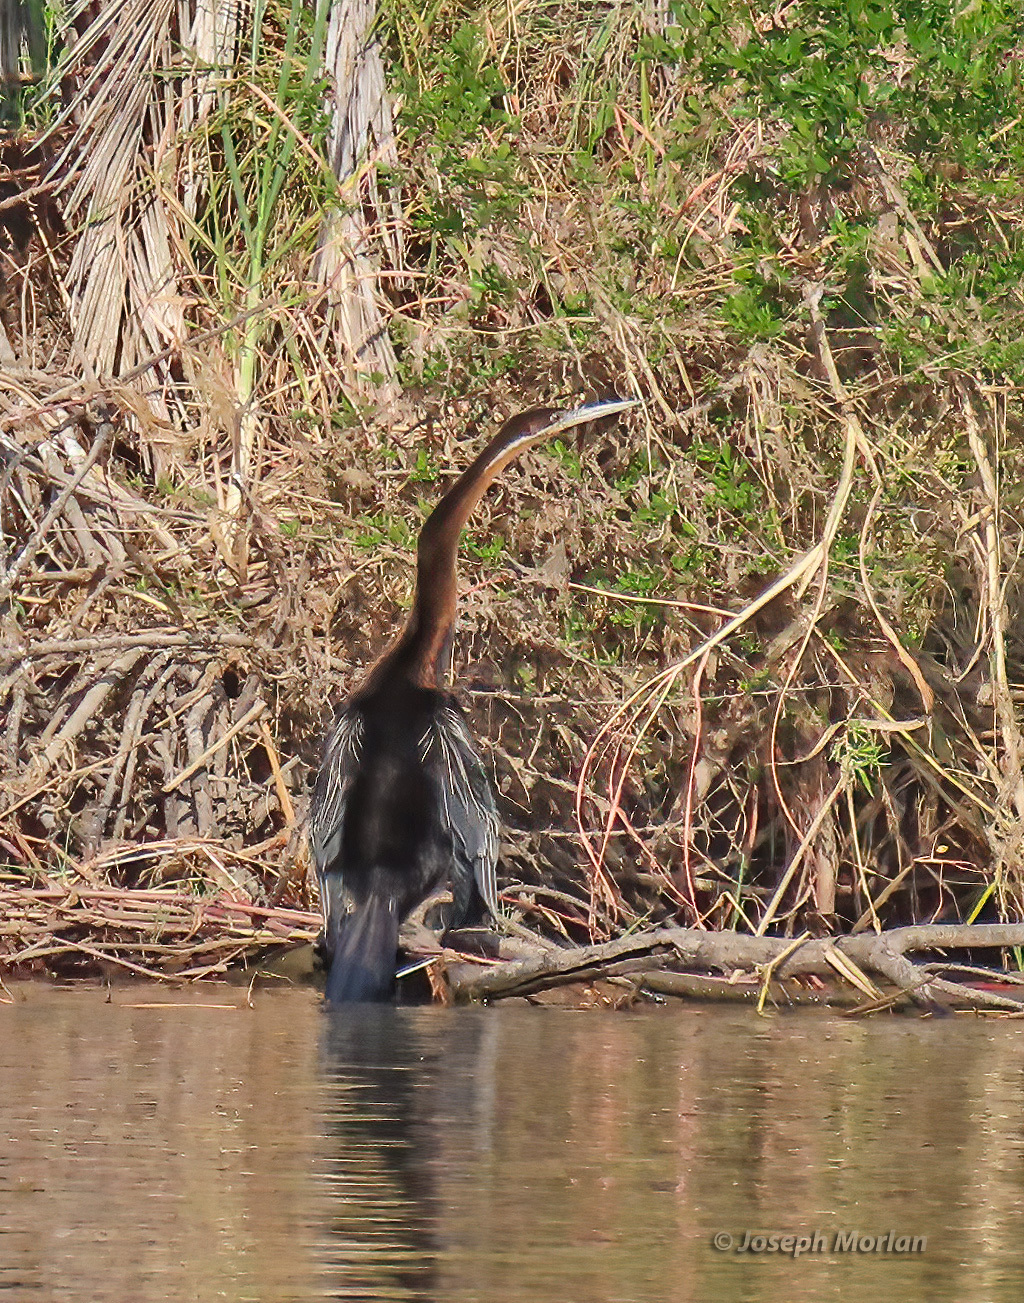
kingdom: Animalia
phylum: Chordata
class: Aves
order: Suliformes
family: Anhingidae
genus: Anhinga
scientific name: Anhinga rufa
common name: African darter
